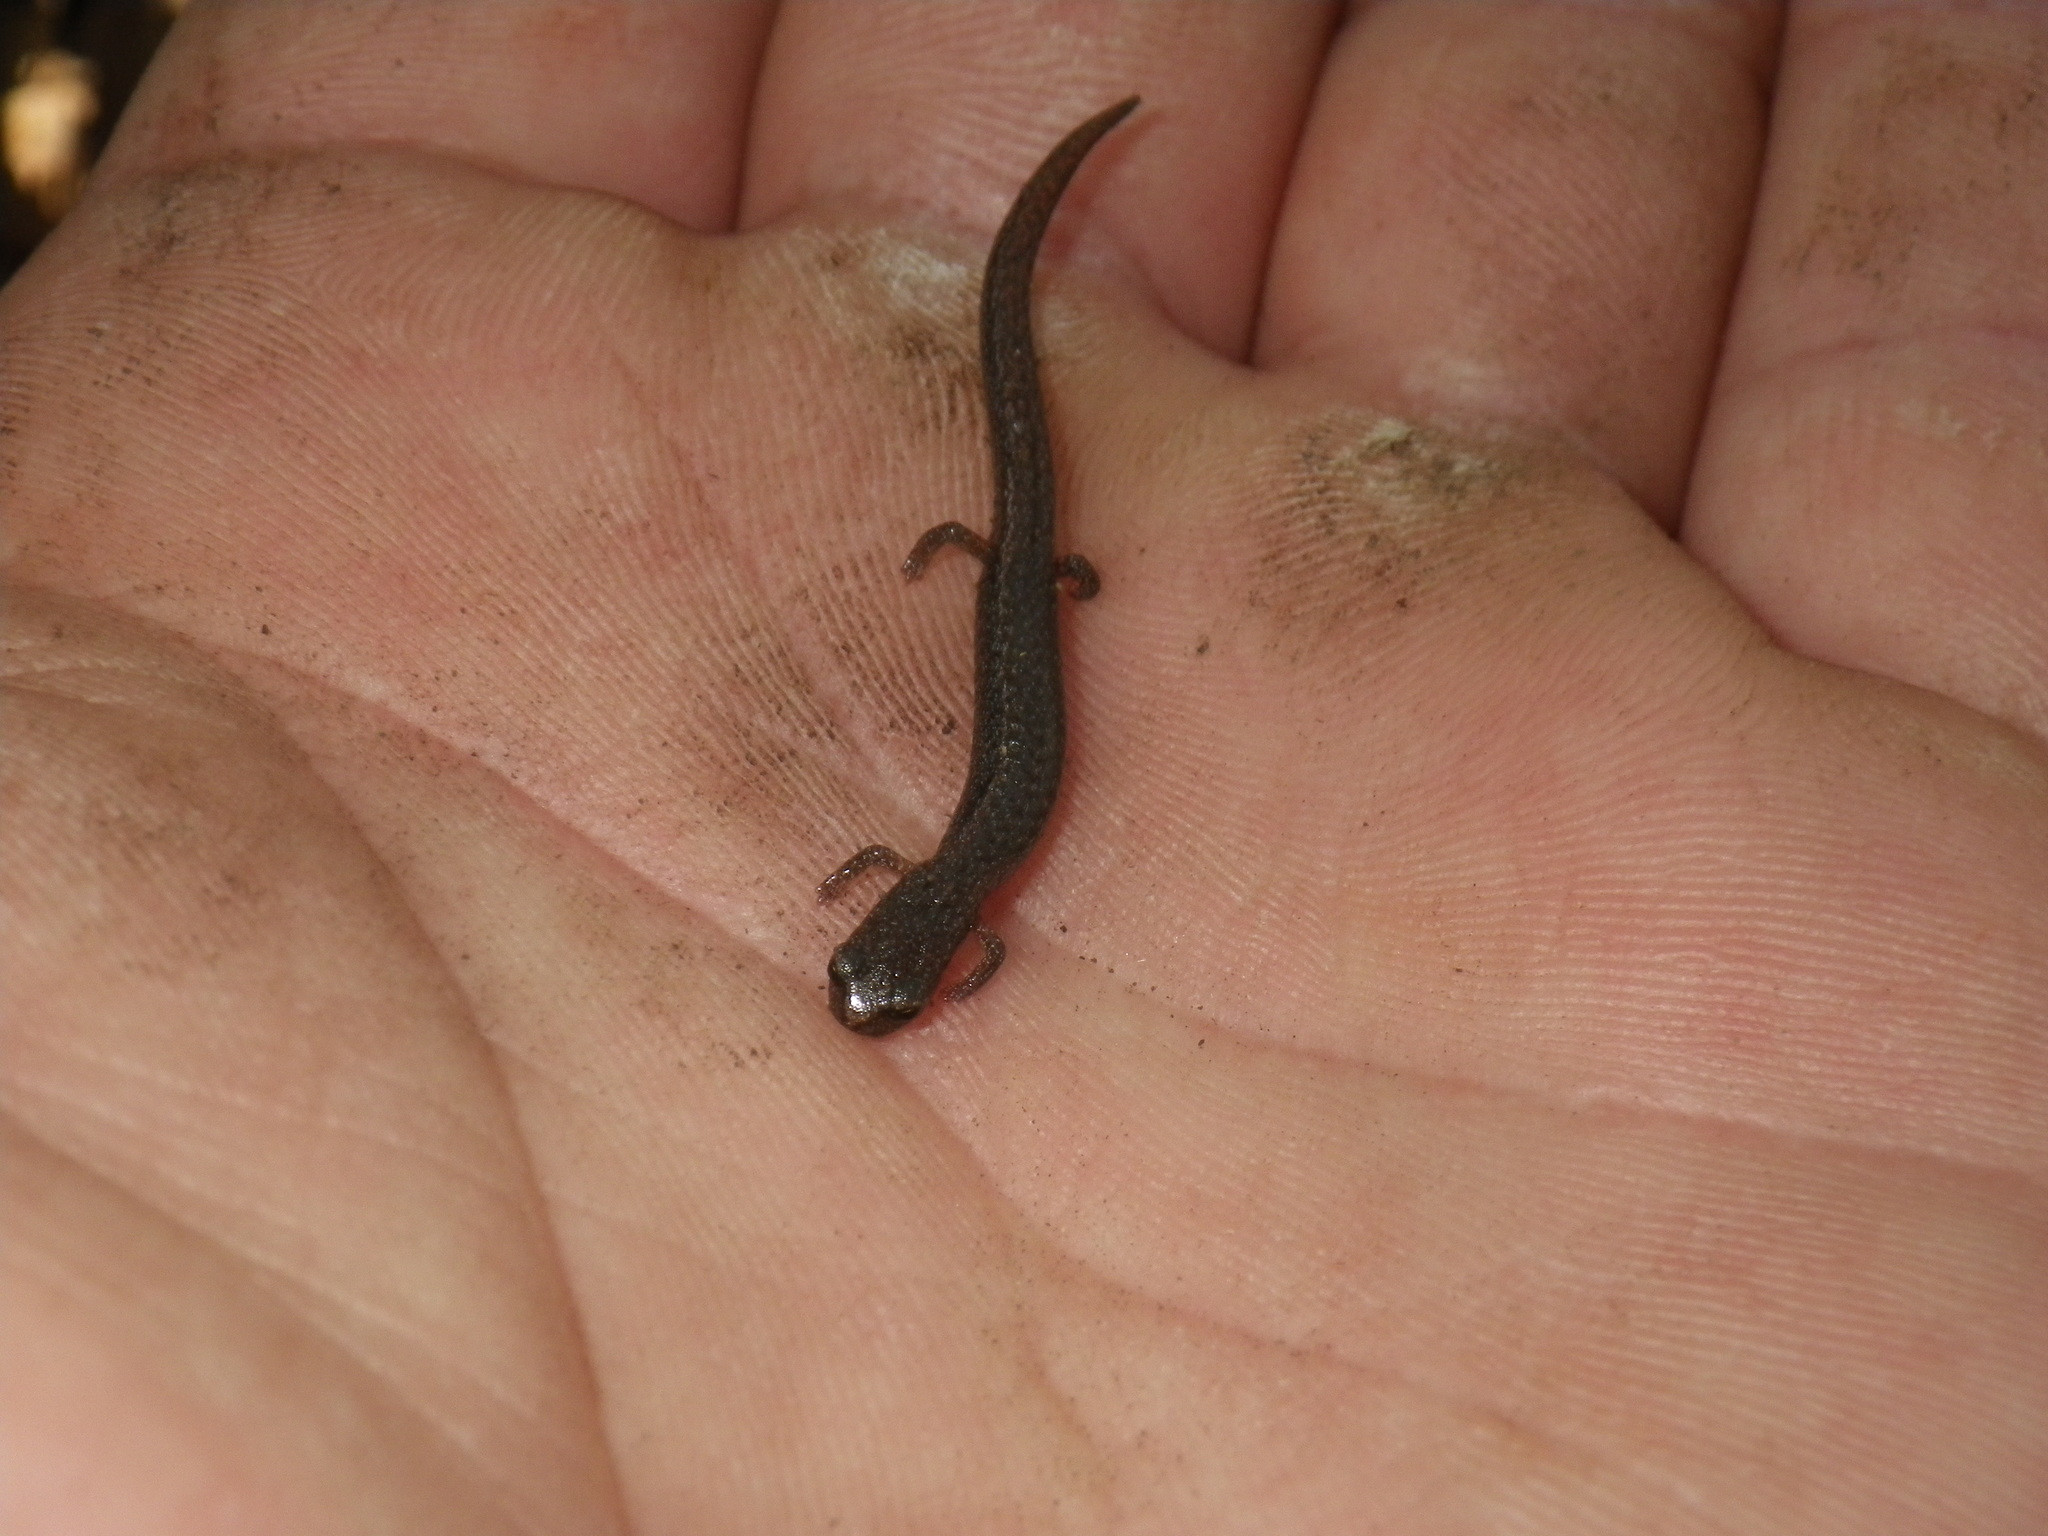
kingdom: Animalia
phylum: Chordata
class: Amphibia
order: Caudata
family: Plethodontidae
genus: Batrachoseps
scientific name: Batrachoseps attenuatus
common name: California slender salamander
